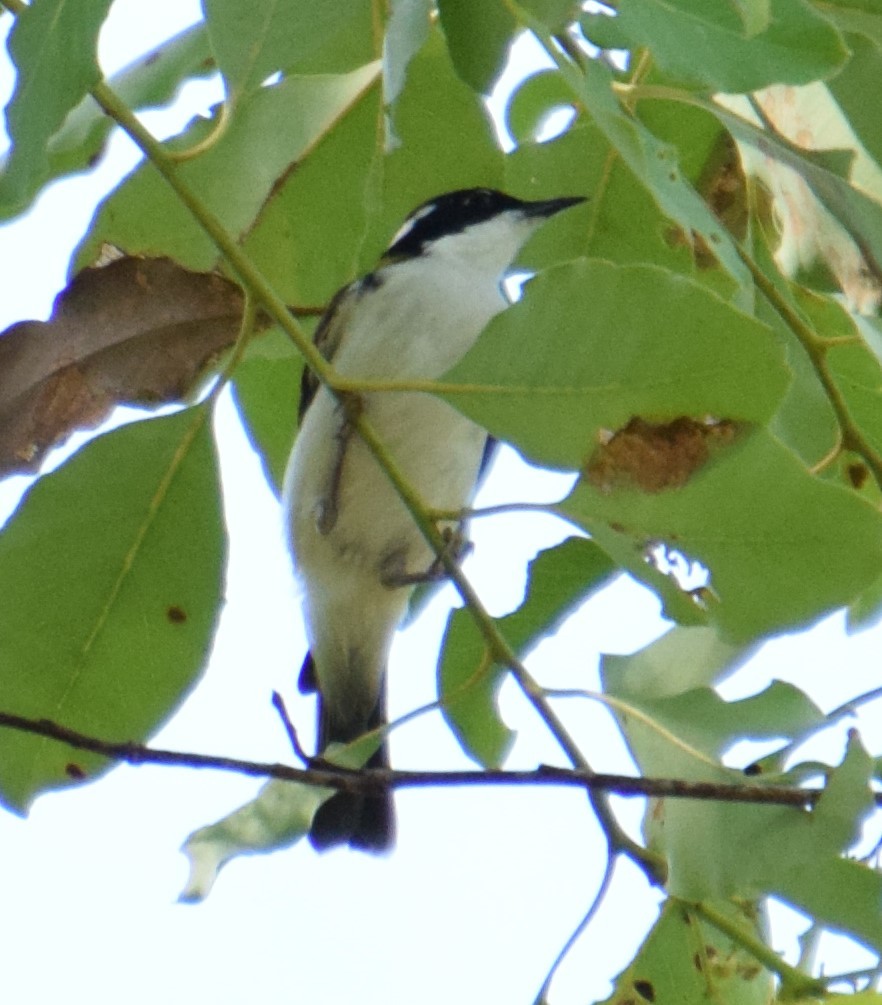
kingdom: Animalia
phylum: Chordata
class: Aves
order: Passeriformes
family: Meliphagidae
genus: Melithreptus
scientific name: Melithreptus albogularis
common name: White-throated honeyeater
